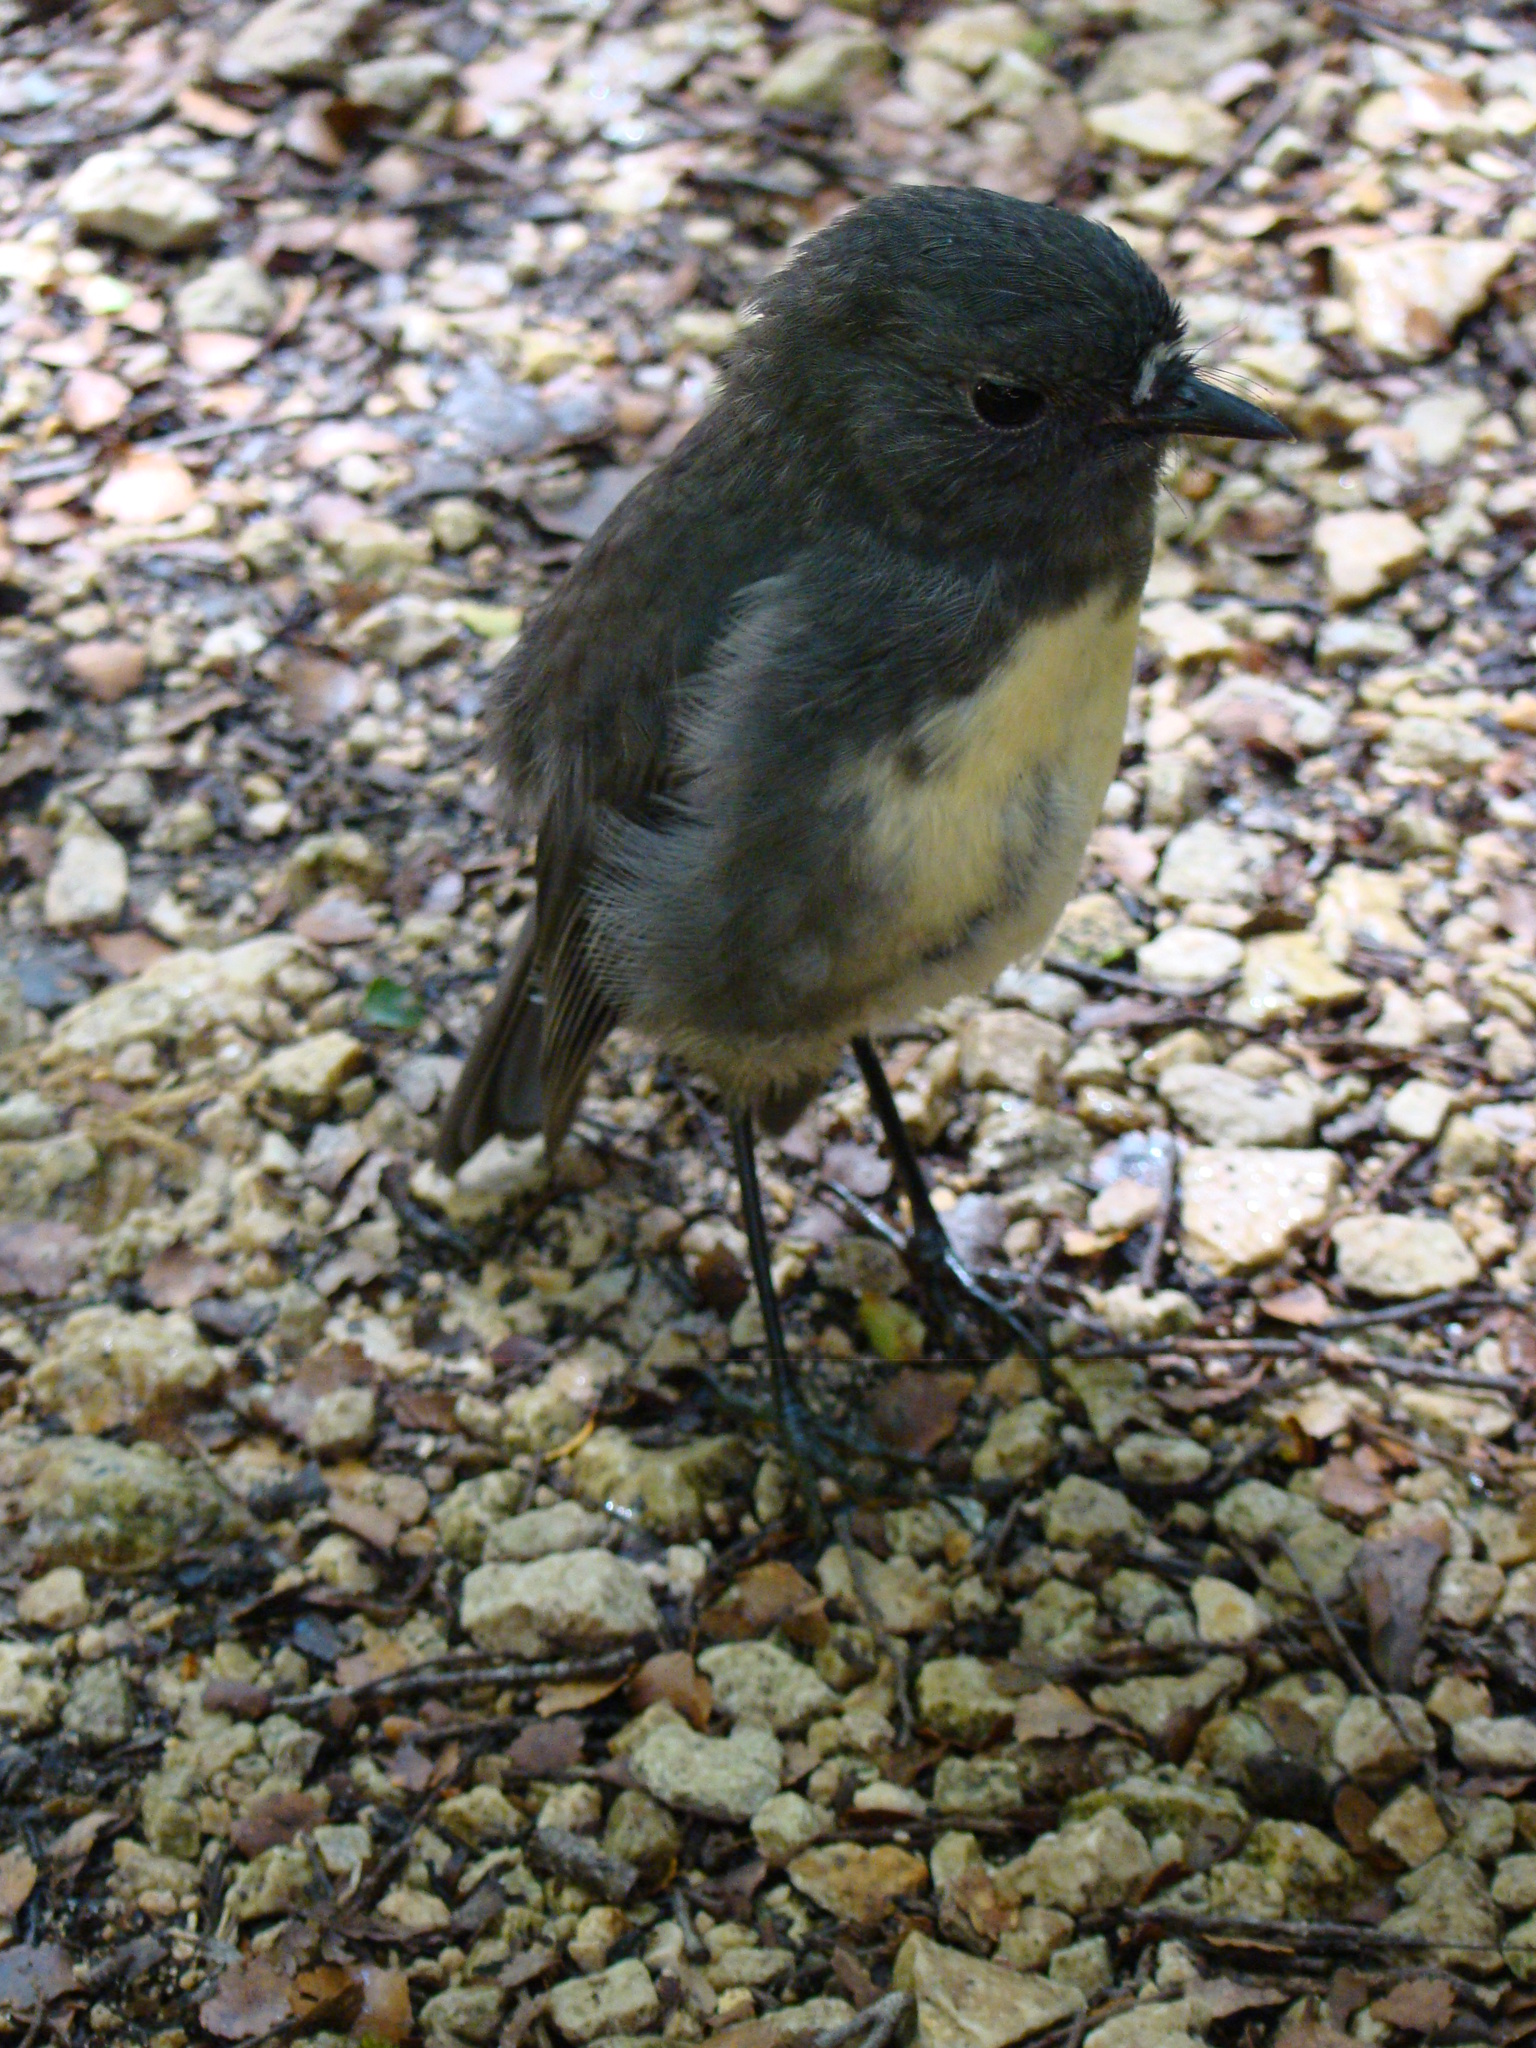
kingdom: Animalia
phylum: Chordata
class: Aves
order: Passeriformes
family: Petroicidae
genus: Petroica
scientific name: Petroica australis
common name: New zealand robin
